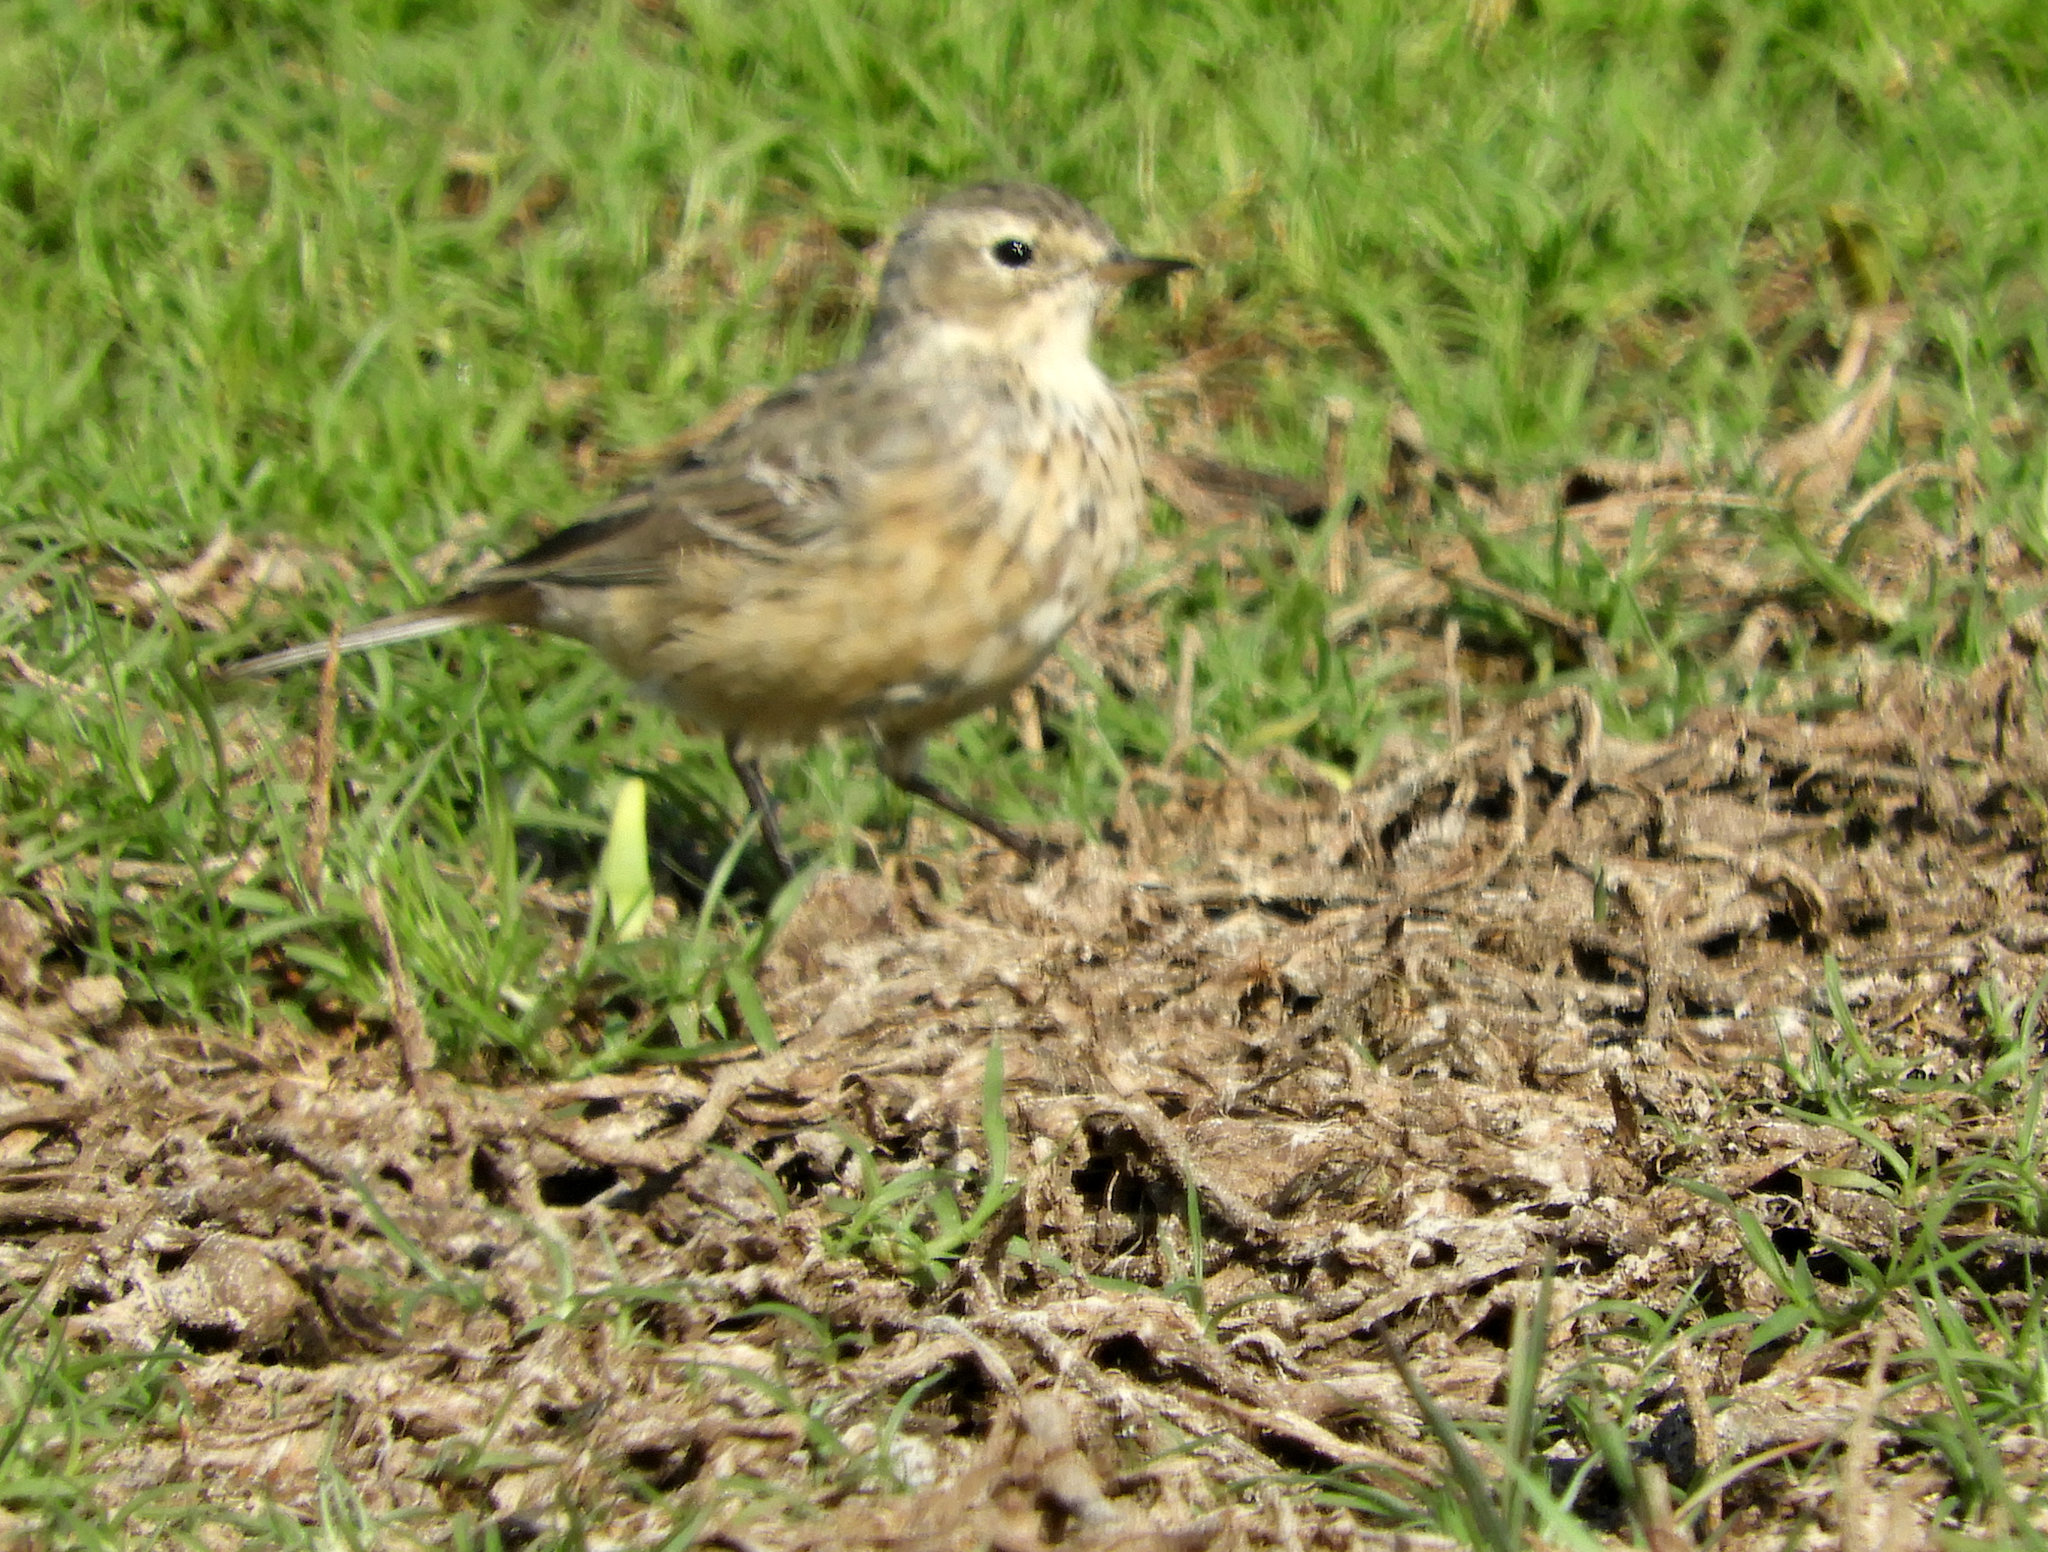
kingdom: Animalia
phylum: Chordata
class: Aves
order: Passeriformes
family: Motacillidae
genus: Anthus
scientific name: Anthus rubescens
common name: Buff-bellied pipit
